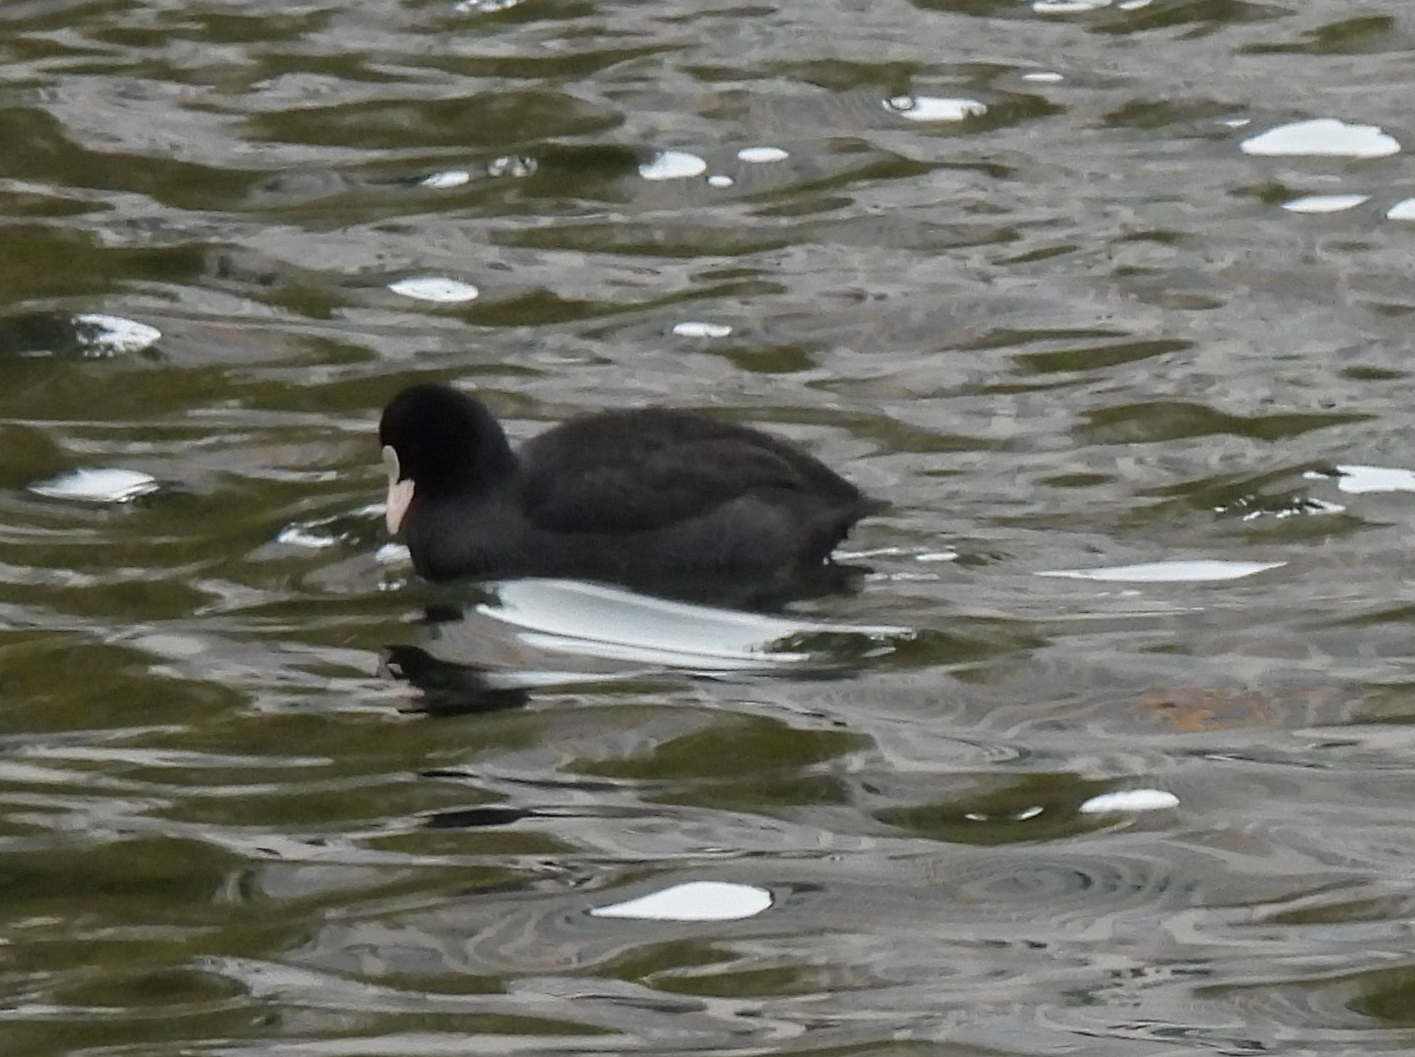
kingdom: Animalia
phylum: Chordata
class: Aves
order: Gruiformes
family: Rallidae
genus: Fulica
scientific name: Fulica atra
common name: Eurasian coot
